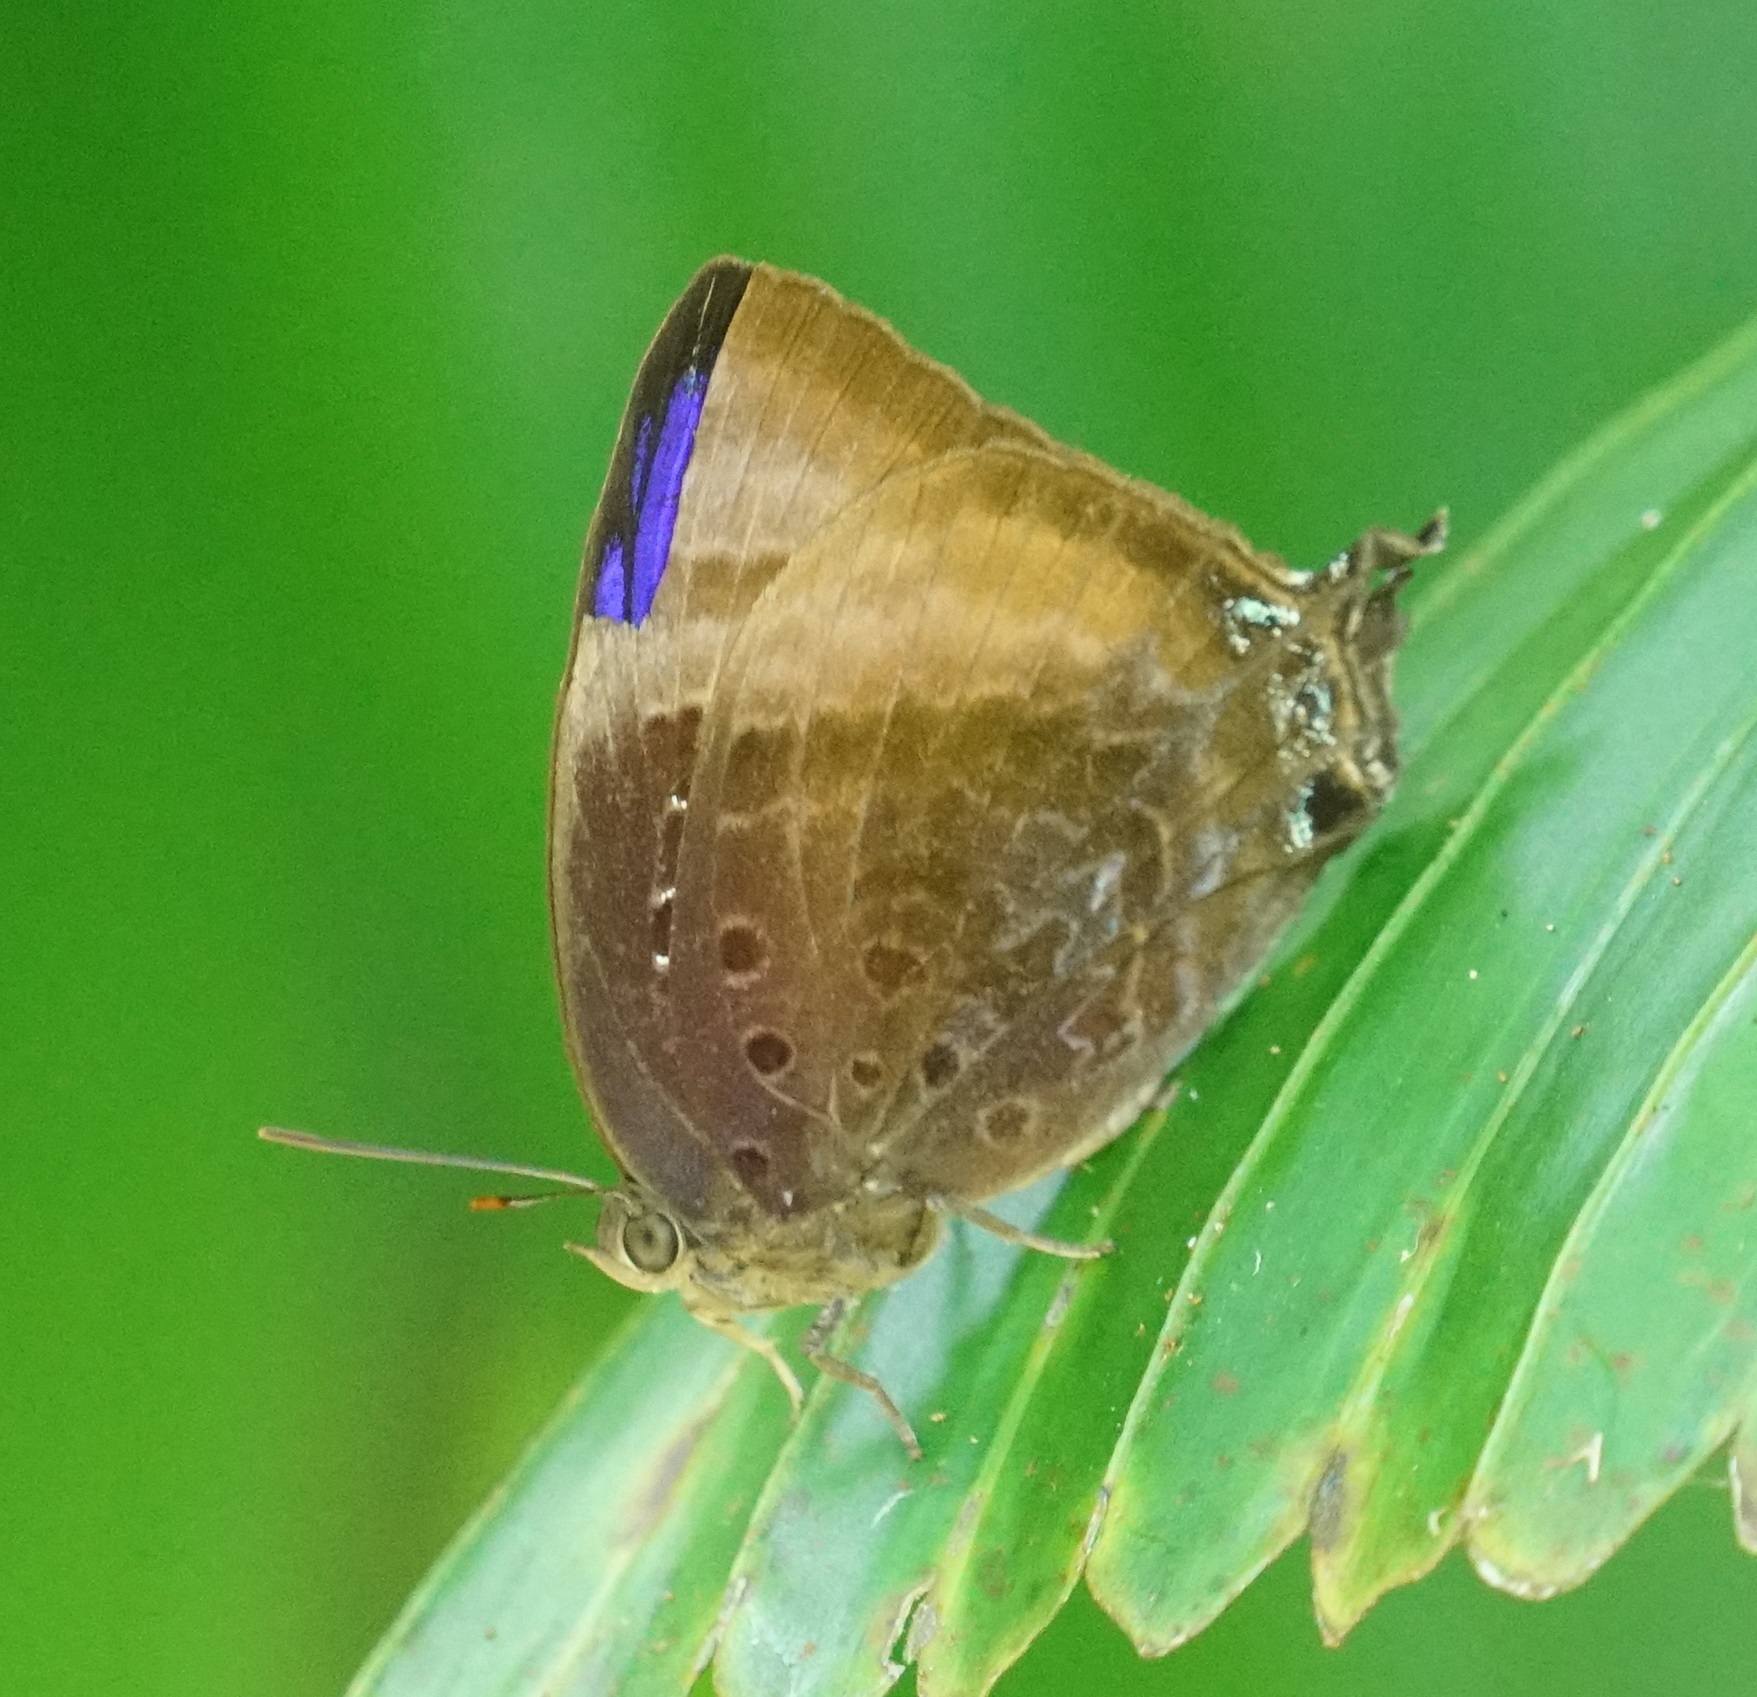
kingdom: Animalia
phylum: Arthropoda
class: Insecta
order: Lepidoptera
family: Lycaenidae
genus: Arhopala
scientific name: Arhopala madytus
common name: Bright oak-blue
